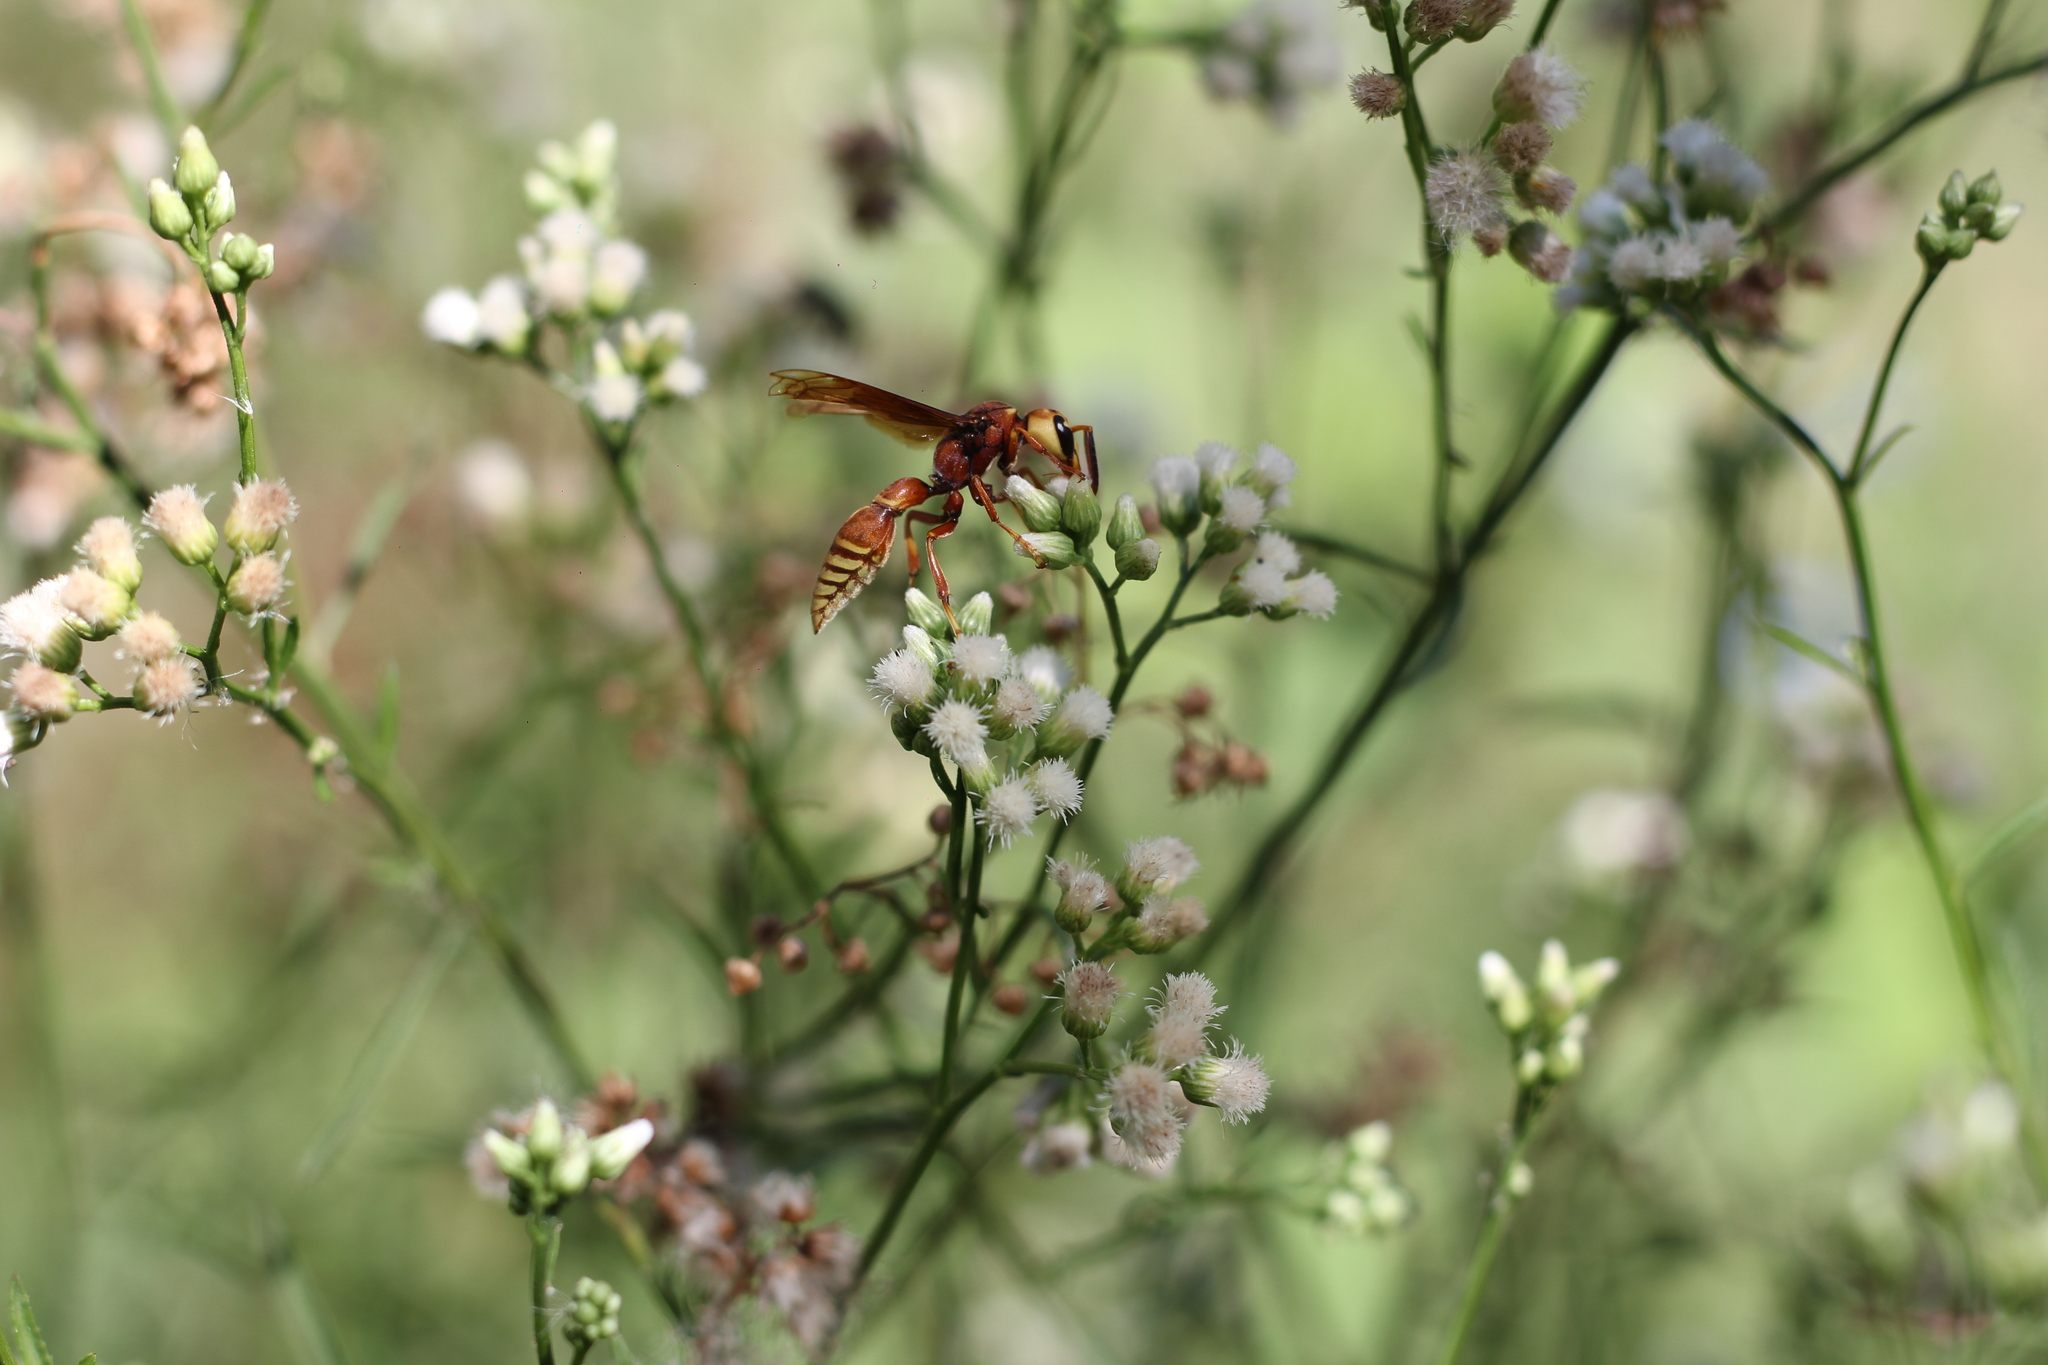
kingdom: Animalia
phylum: Arthropoda
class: Insecta
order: Hymenoptera
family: Eumenidae
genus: Montezumia
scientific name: Montezumia ferruginea
